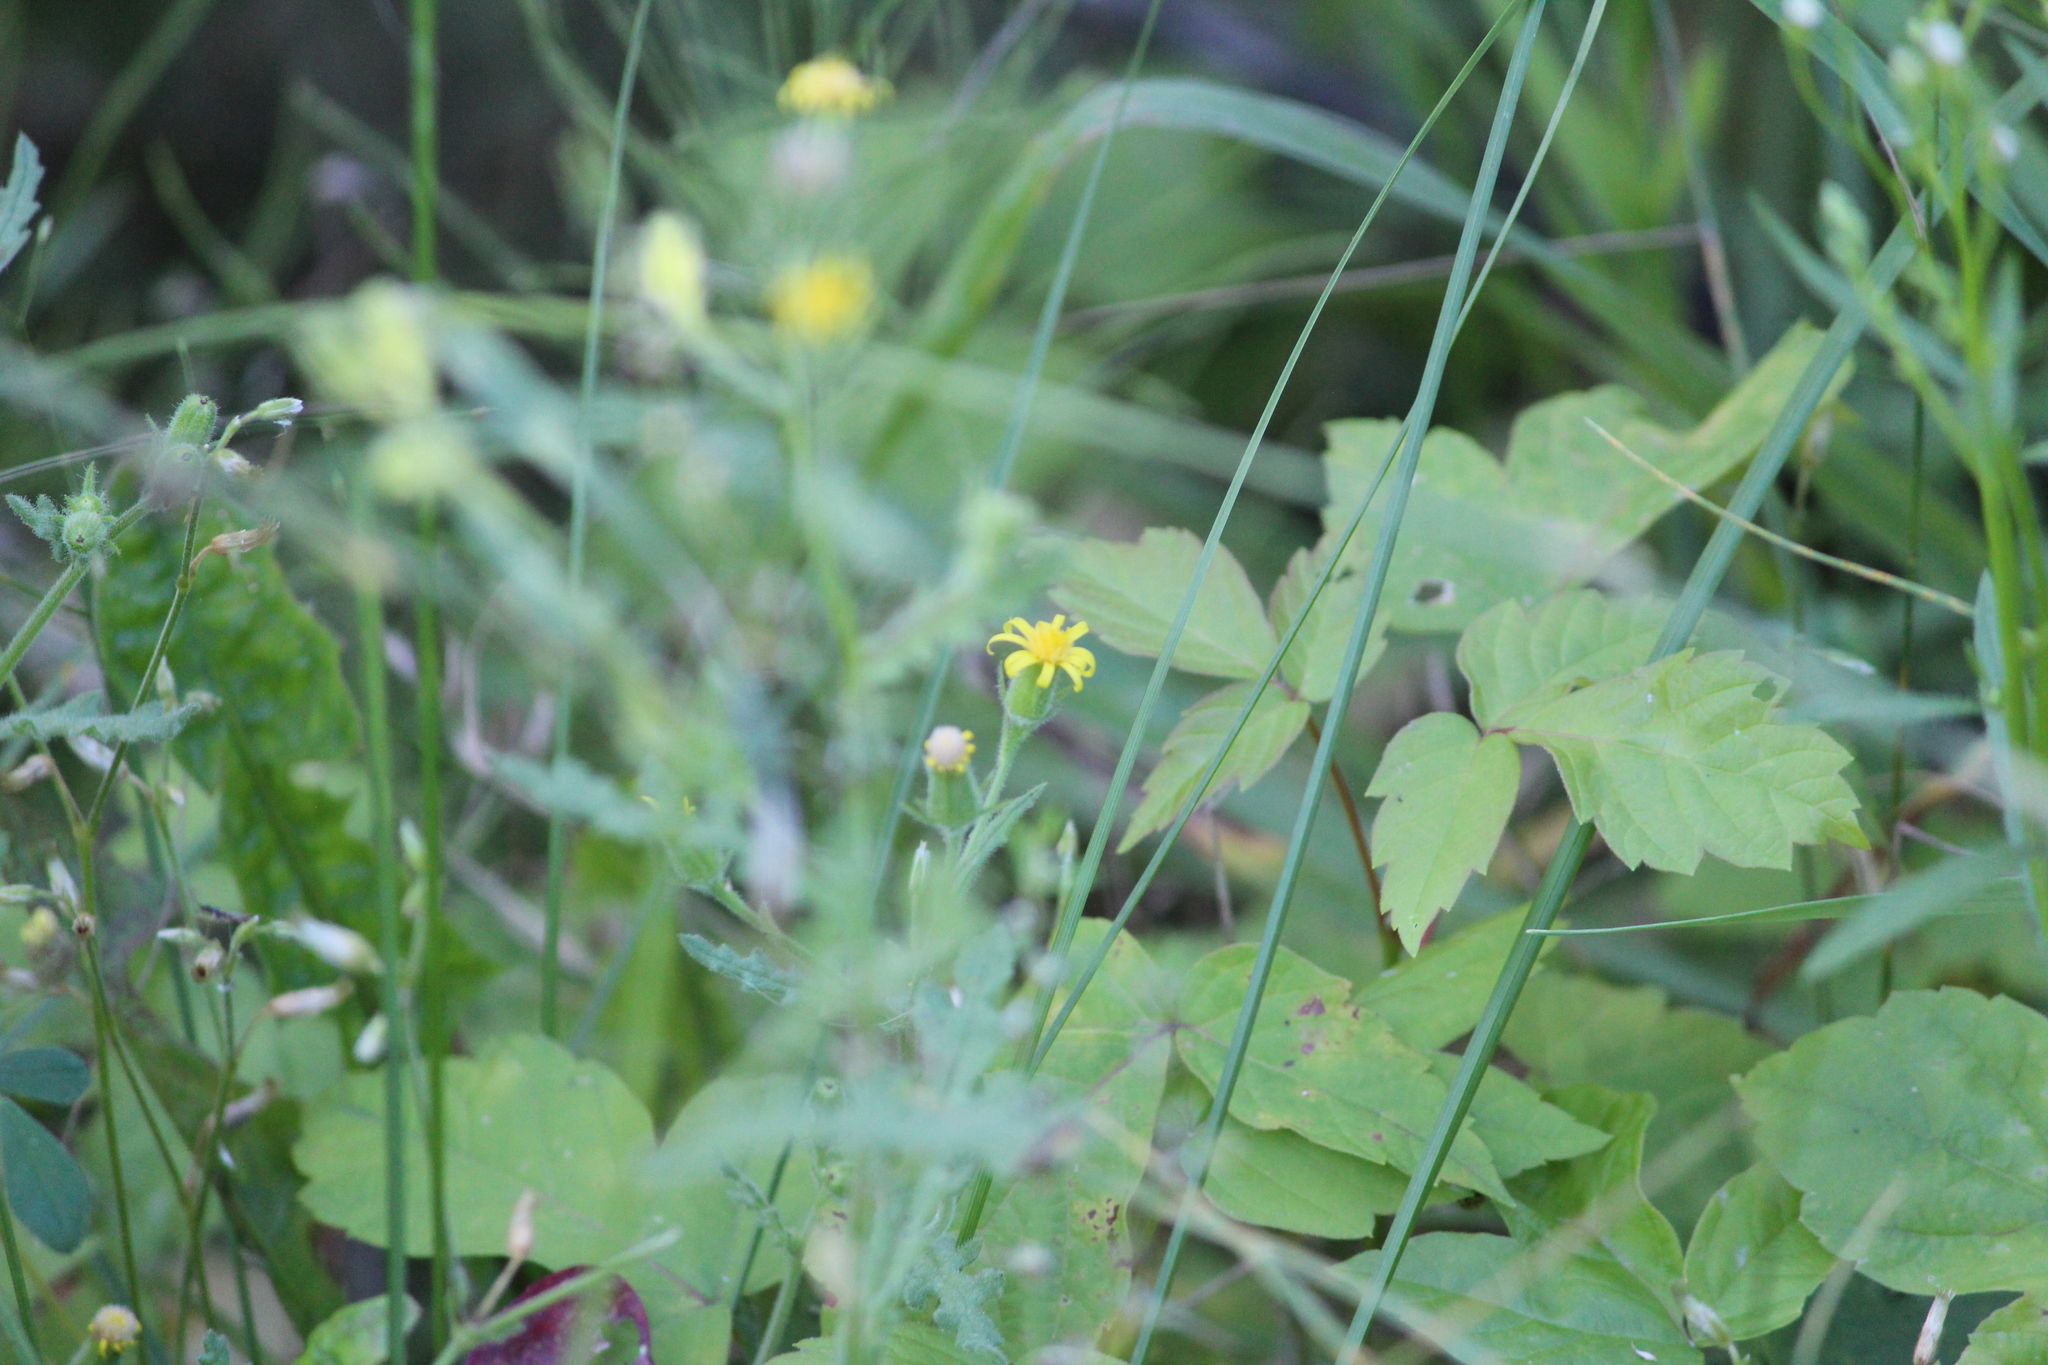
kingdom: Plantae
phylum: Tracheophyta
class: Magnoliopsida
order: Asterales
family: Asteraceae
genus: Senecio
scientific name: Senecio viscosus
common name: Sticky groundsel
